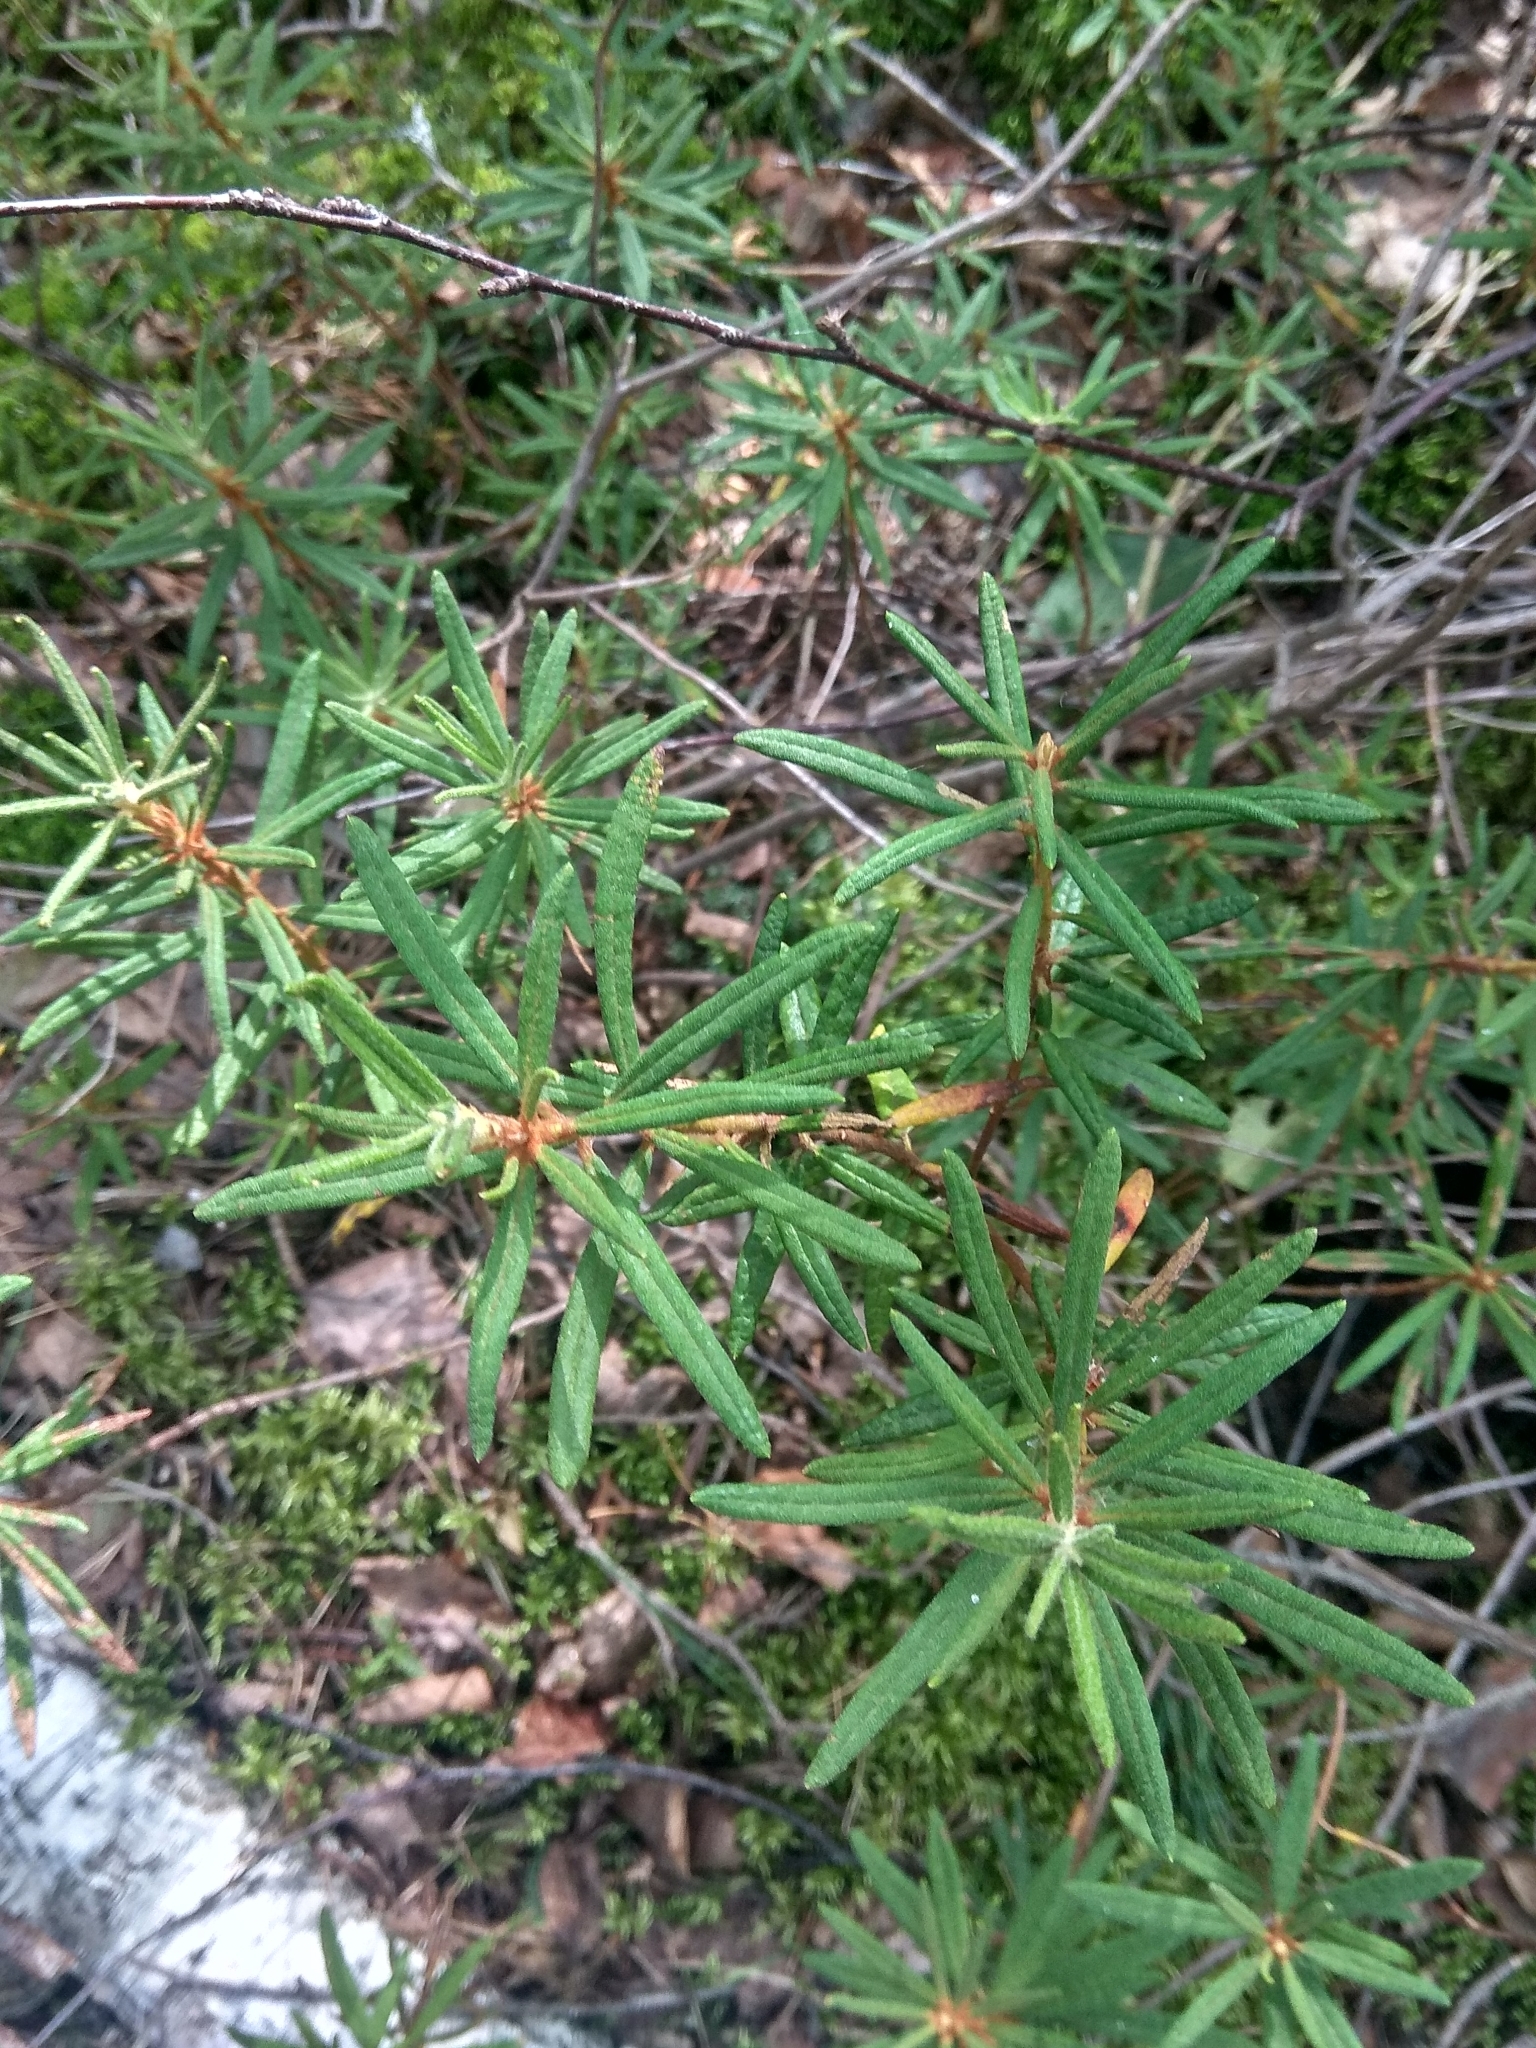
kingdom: Plantae
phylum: Tracheophyta
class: Magnoliopsida
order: Ericales
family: Ericaceae
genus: Rhododendron
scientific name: Rhododendron tomentosum
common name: Marsh labrador tea
